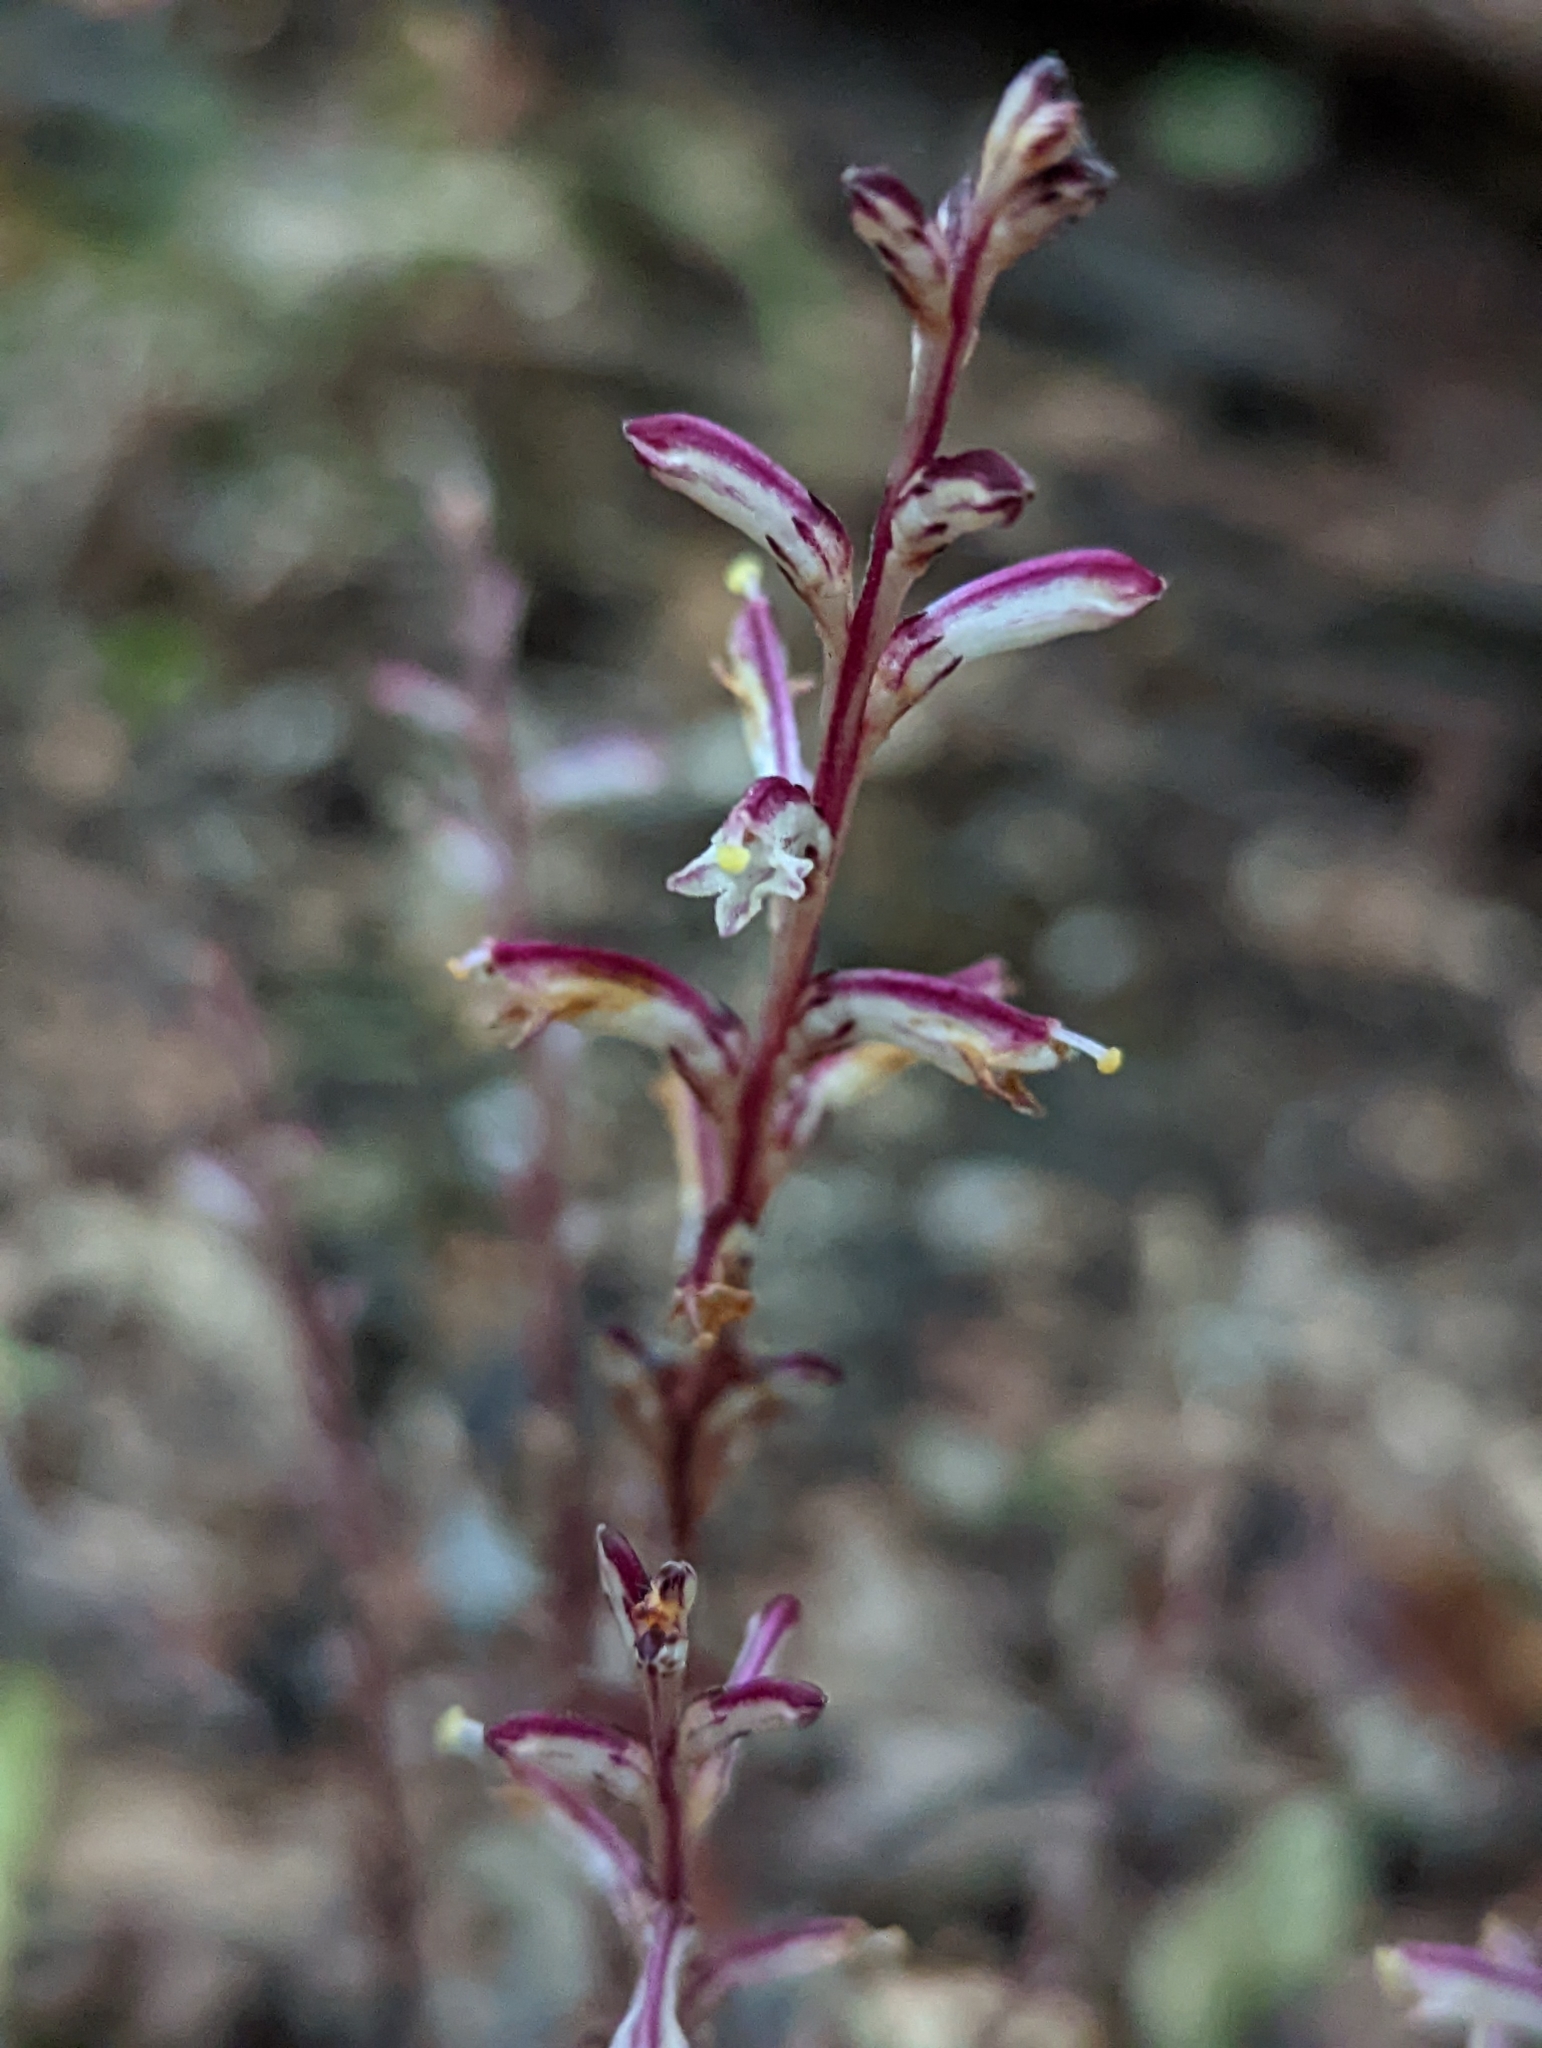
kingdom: Plantae
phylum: Tracheophyta
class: Magnoliopsida
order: Lamiales
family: Orobanchaceae
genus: Epifagus
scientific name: Epifagus virginiana
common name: Beechdrops
